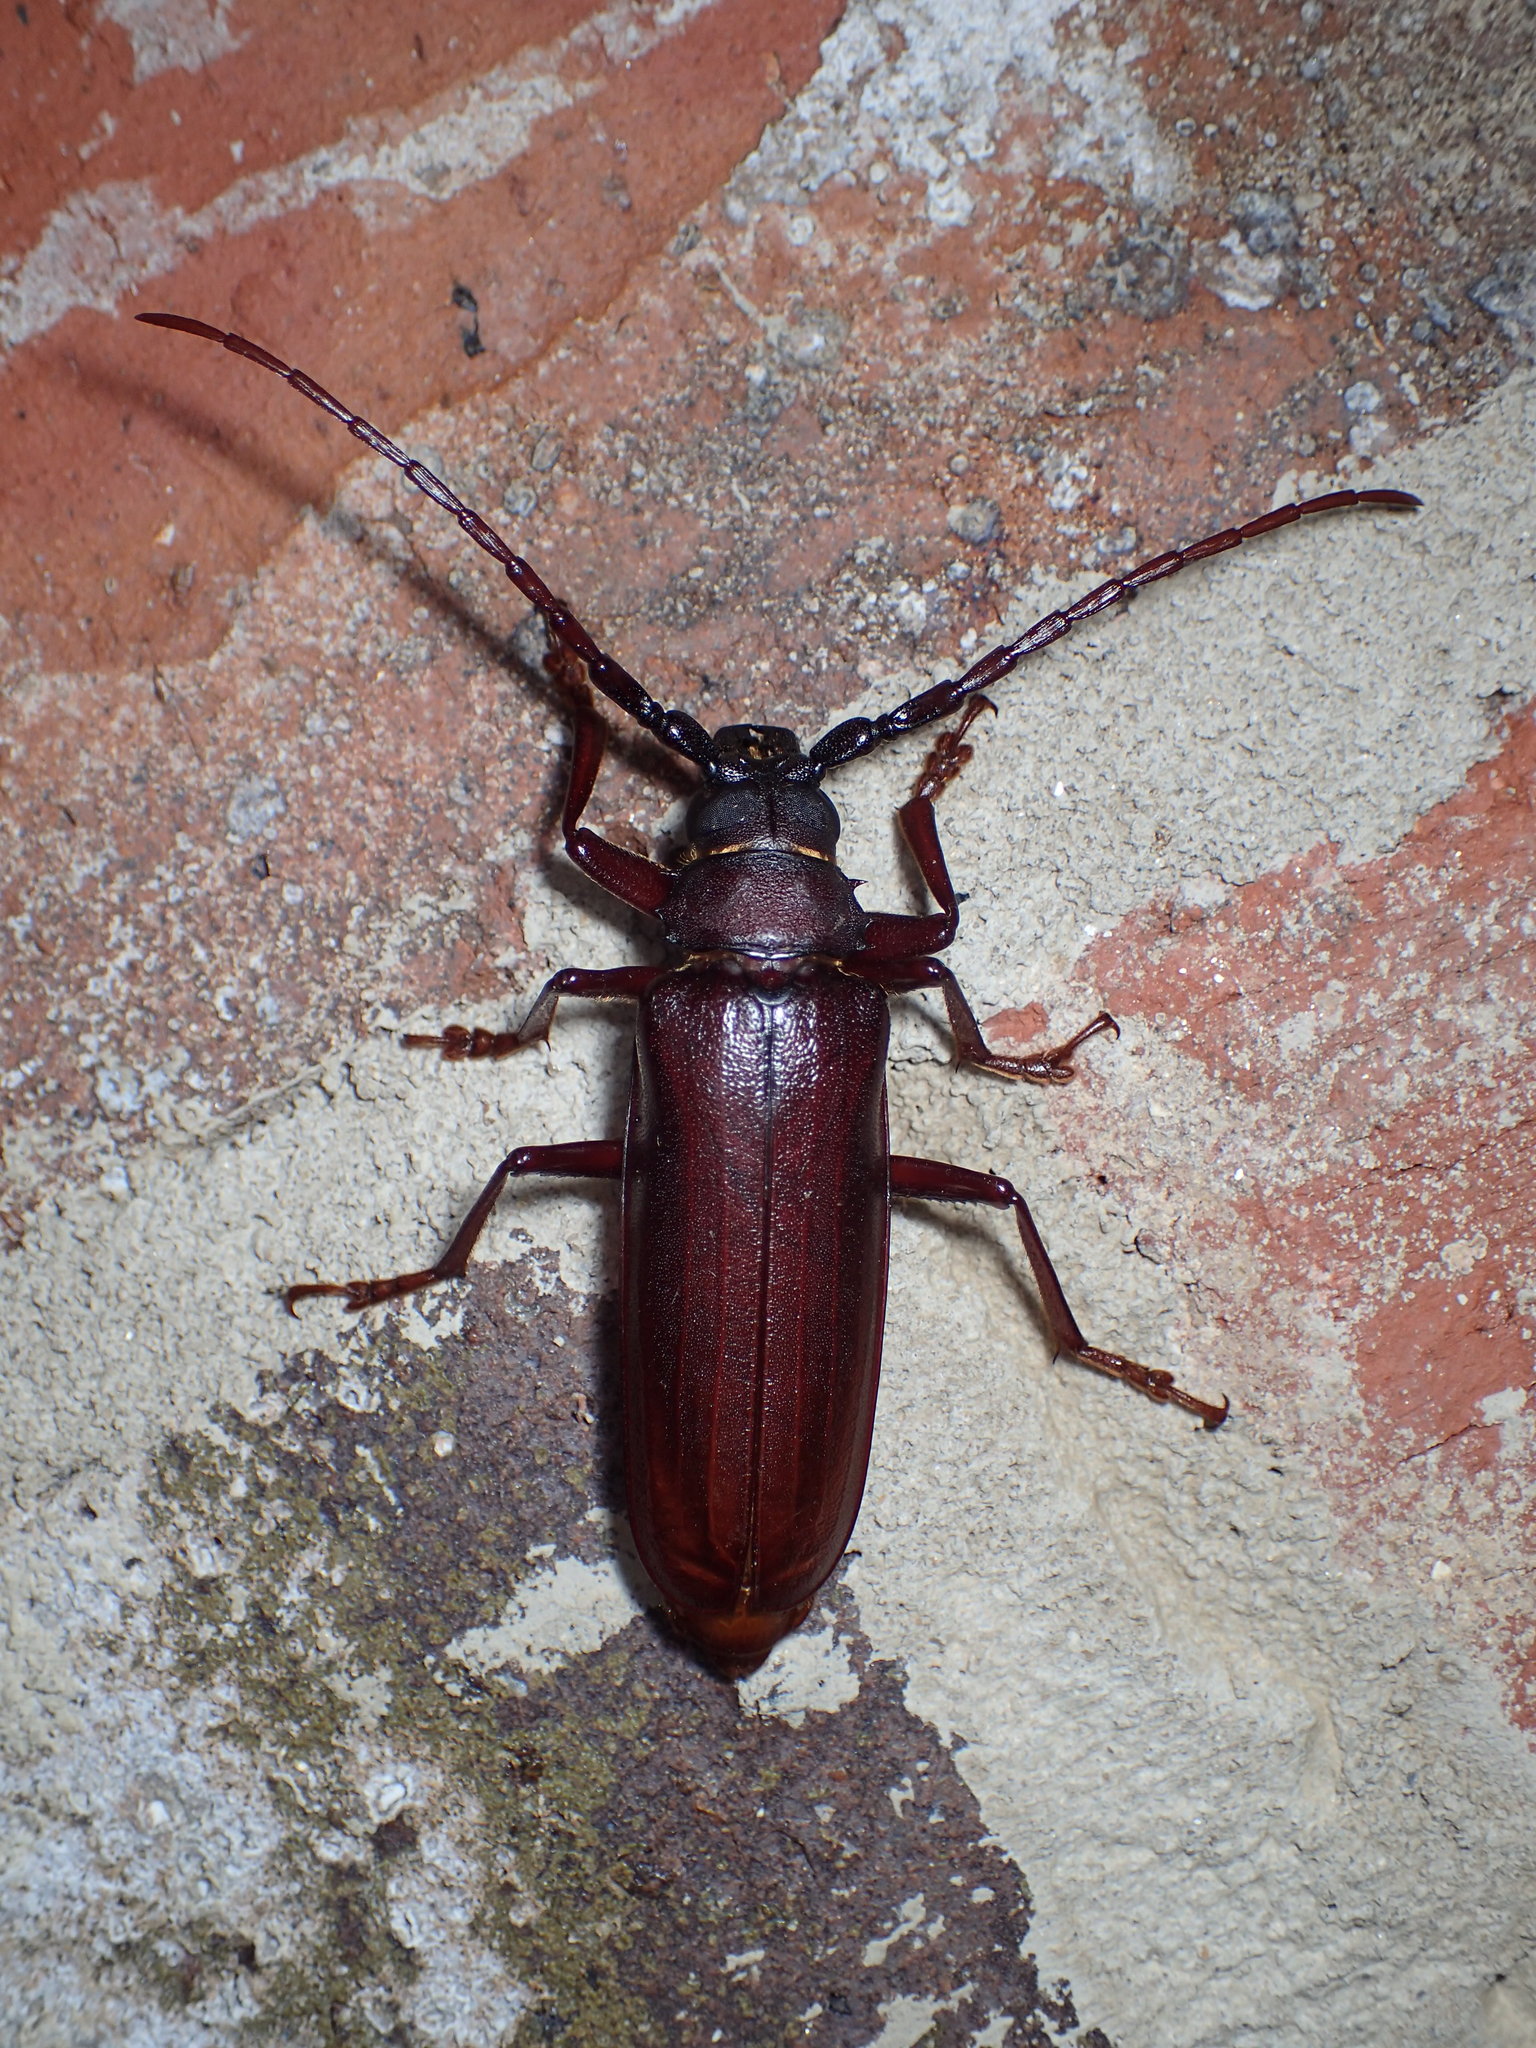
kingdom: Animalia
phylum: Arthropoda
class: Insecta
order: Coleoptera
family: Cerambycidae
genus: Orthosoma
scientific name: Orthosoma brunneum
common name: Brown prionid beetle
